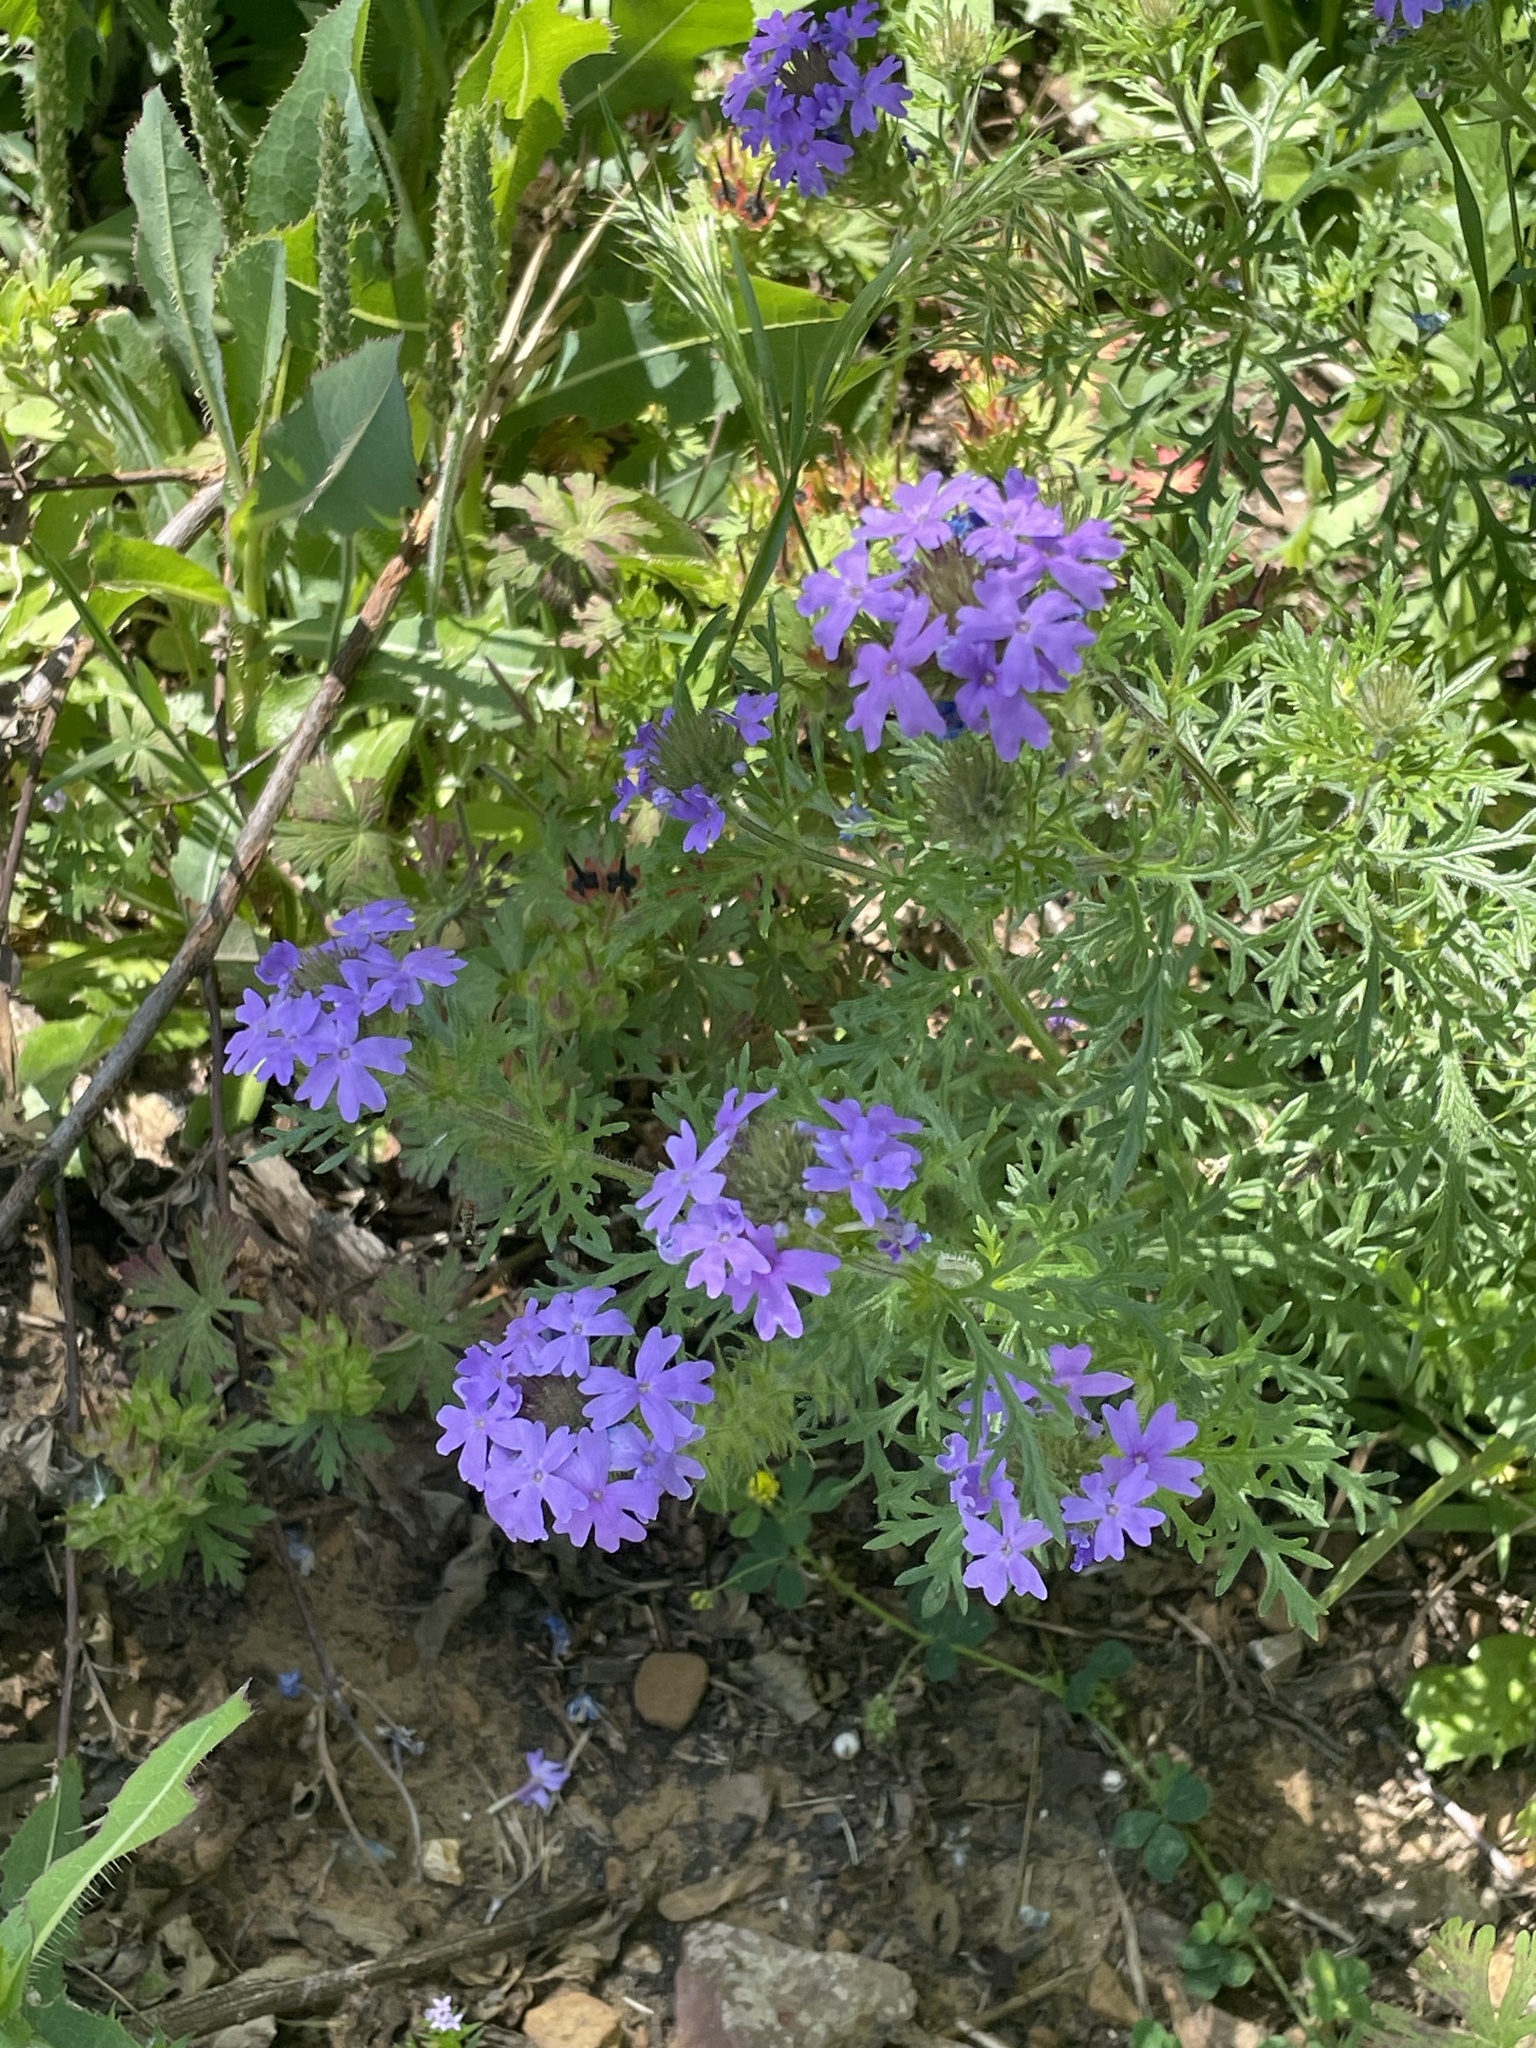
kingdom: Plantae
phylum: Tracheophyta
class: Magnoliopsida
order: Lamiales
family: Verbenaceae
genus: Verbena
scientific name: Verbena bipinnatifida
